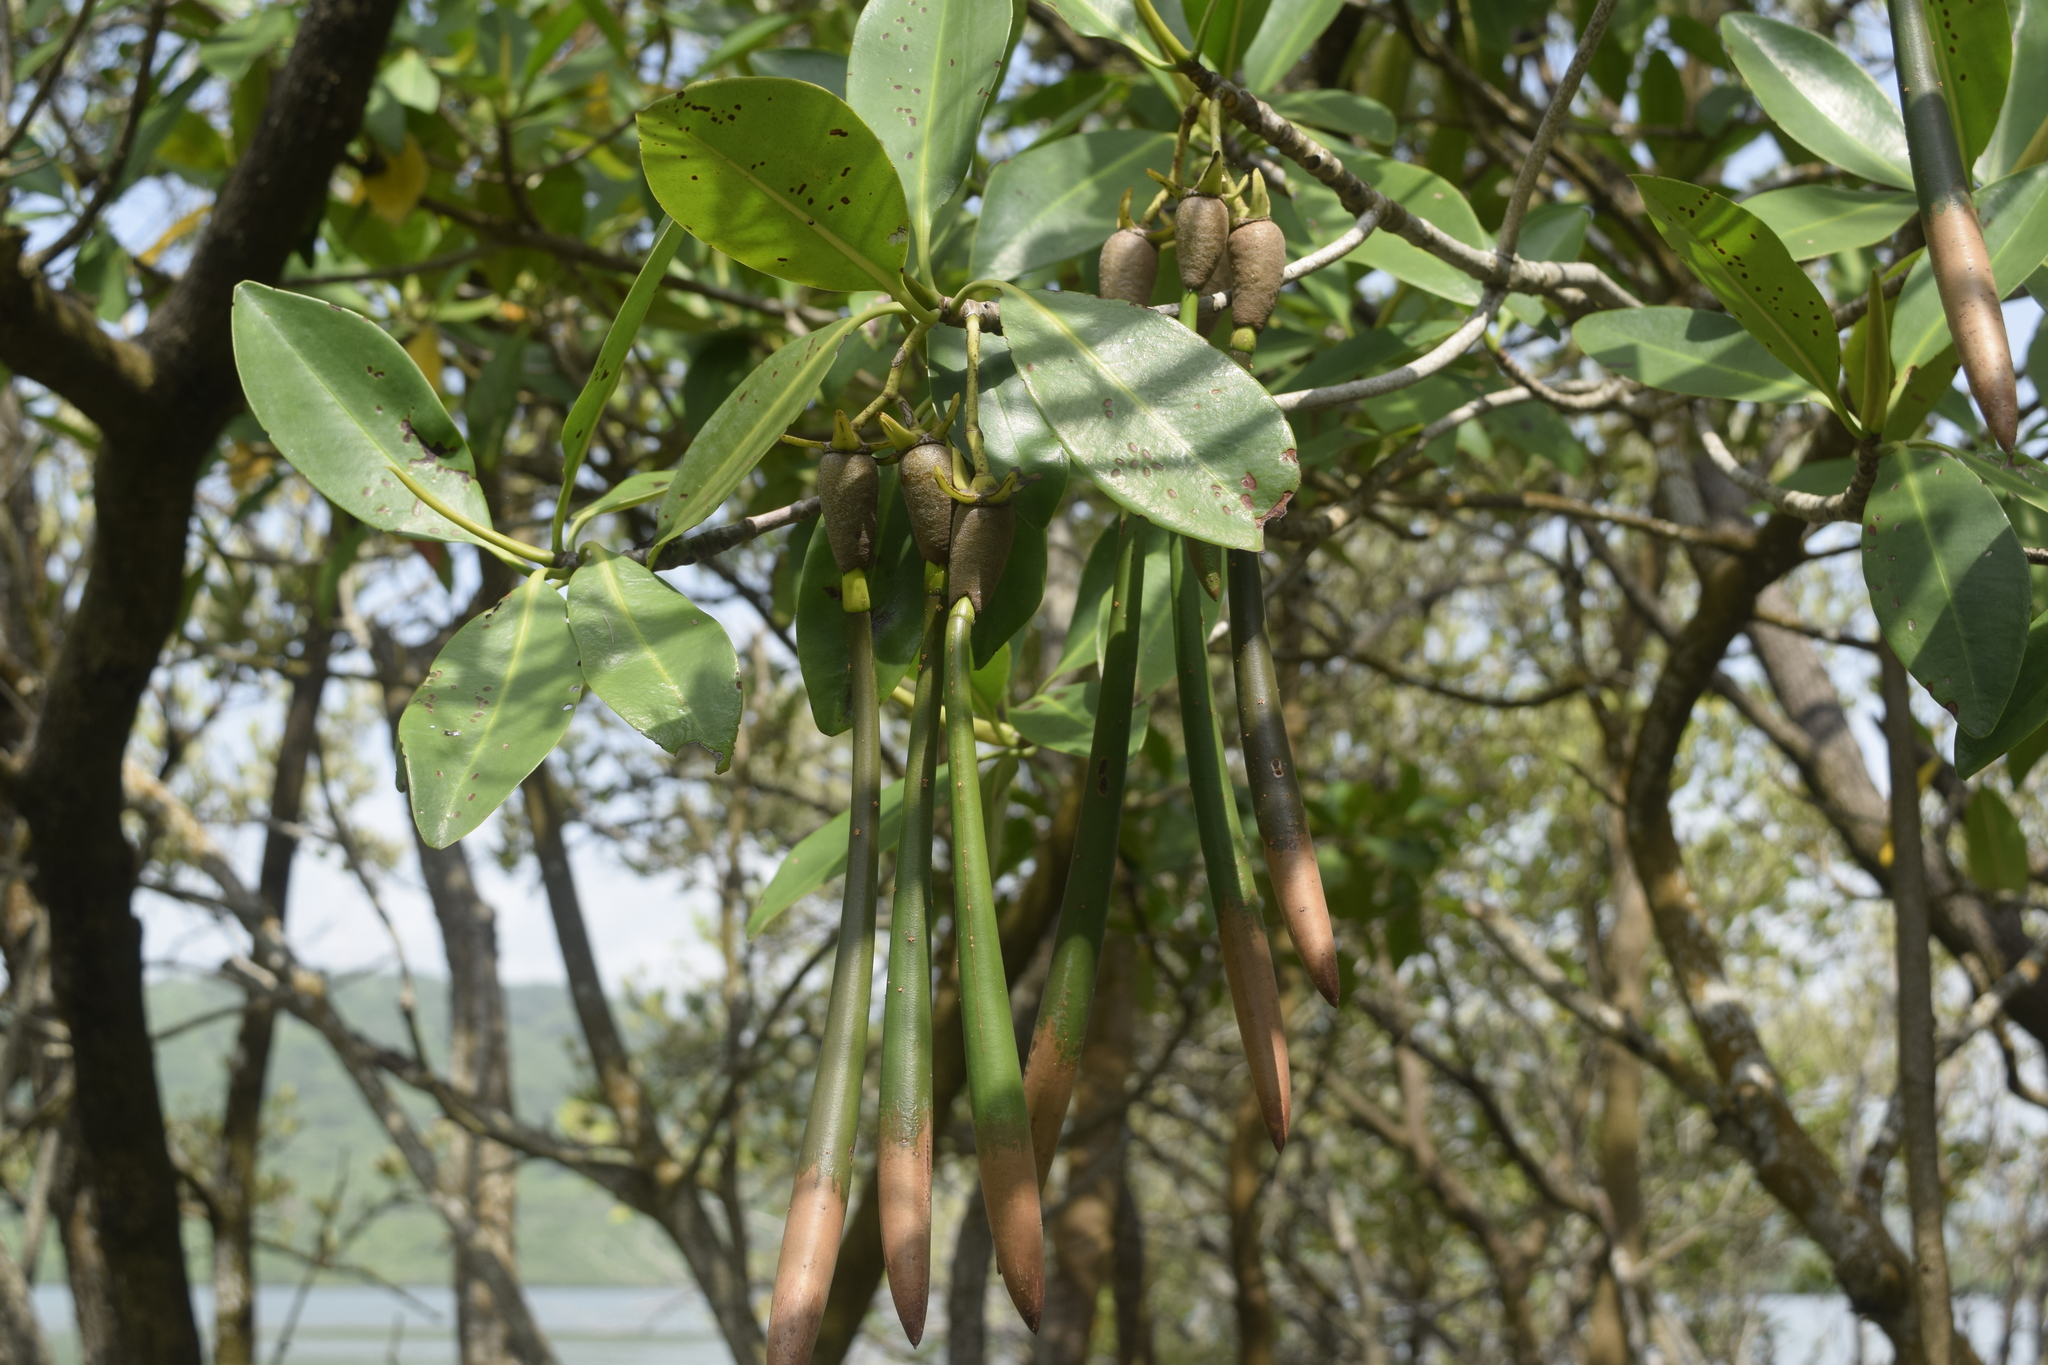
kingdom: Plantae
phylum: Tracheophyta
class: Magnoliopsida
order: Malpighiales
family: Rhizophoraceae
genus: Rhizophora
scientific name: Rhizophora mangle
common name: Red mangrove
